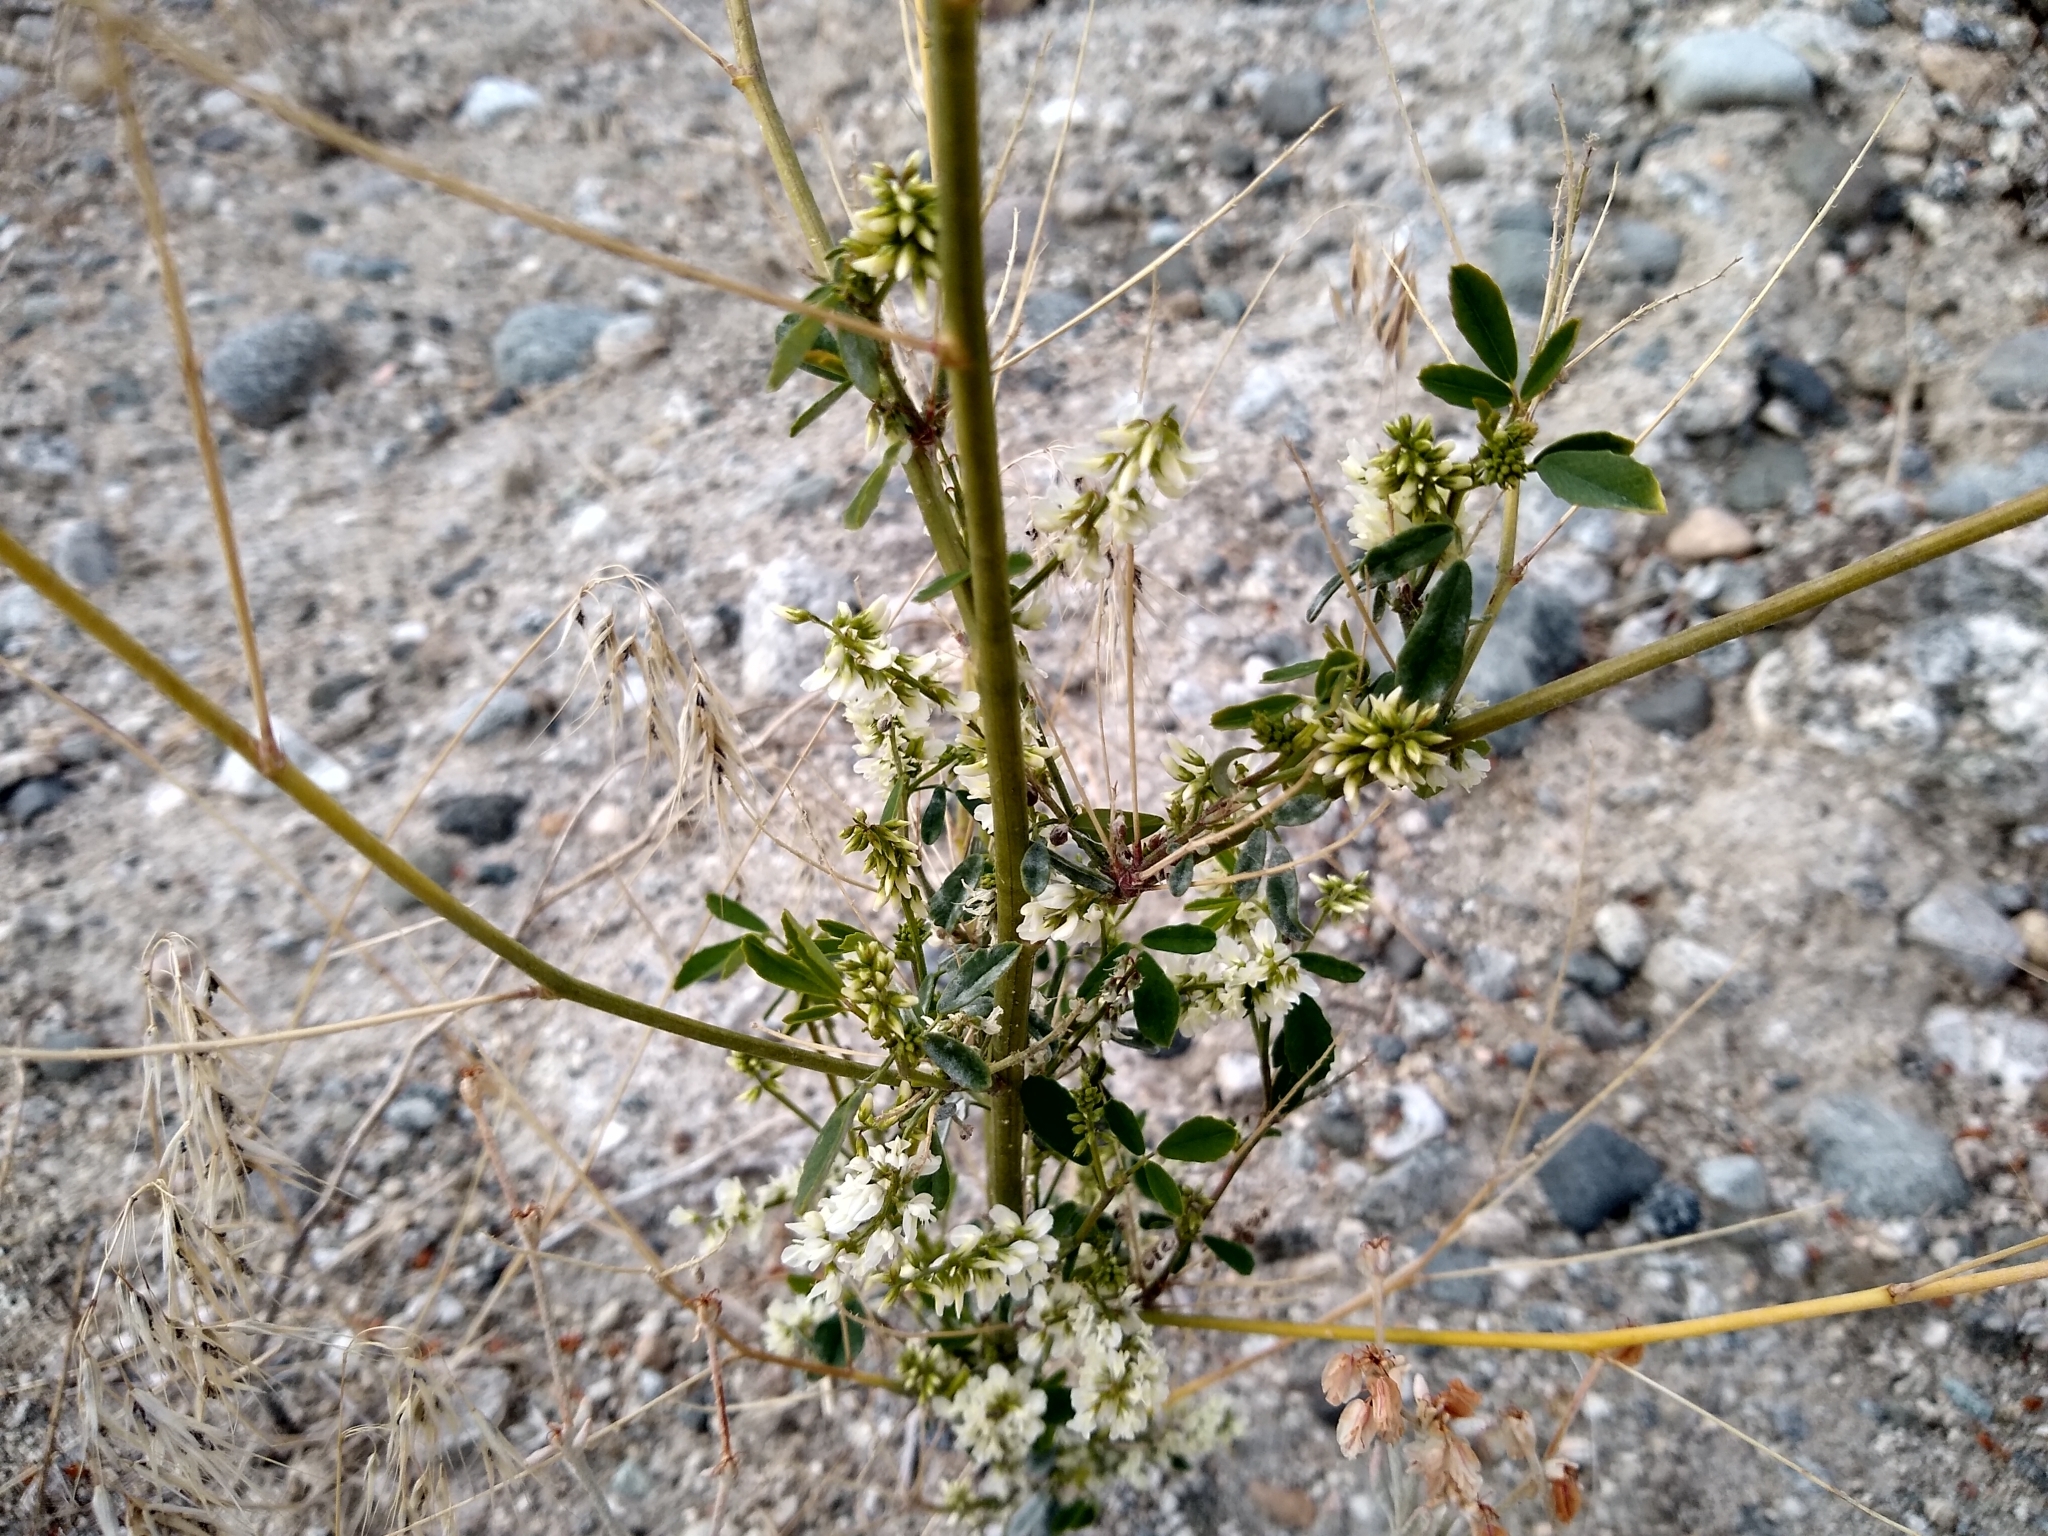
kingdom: Plantae
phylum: Tracheophyta
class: Magnoliopsida
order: Fabales
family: Fabaceae
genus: Melilotus
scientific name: Melilotus albus
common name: White melilot
